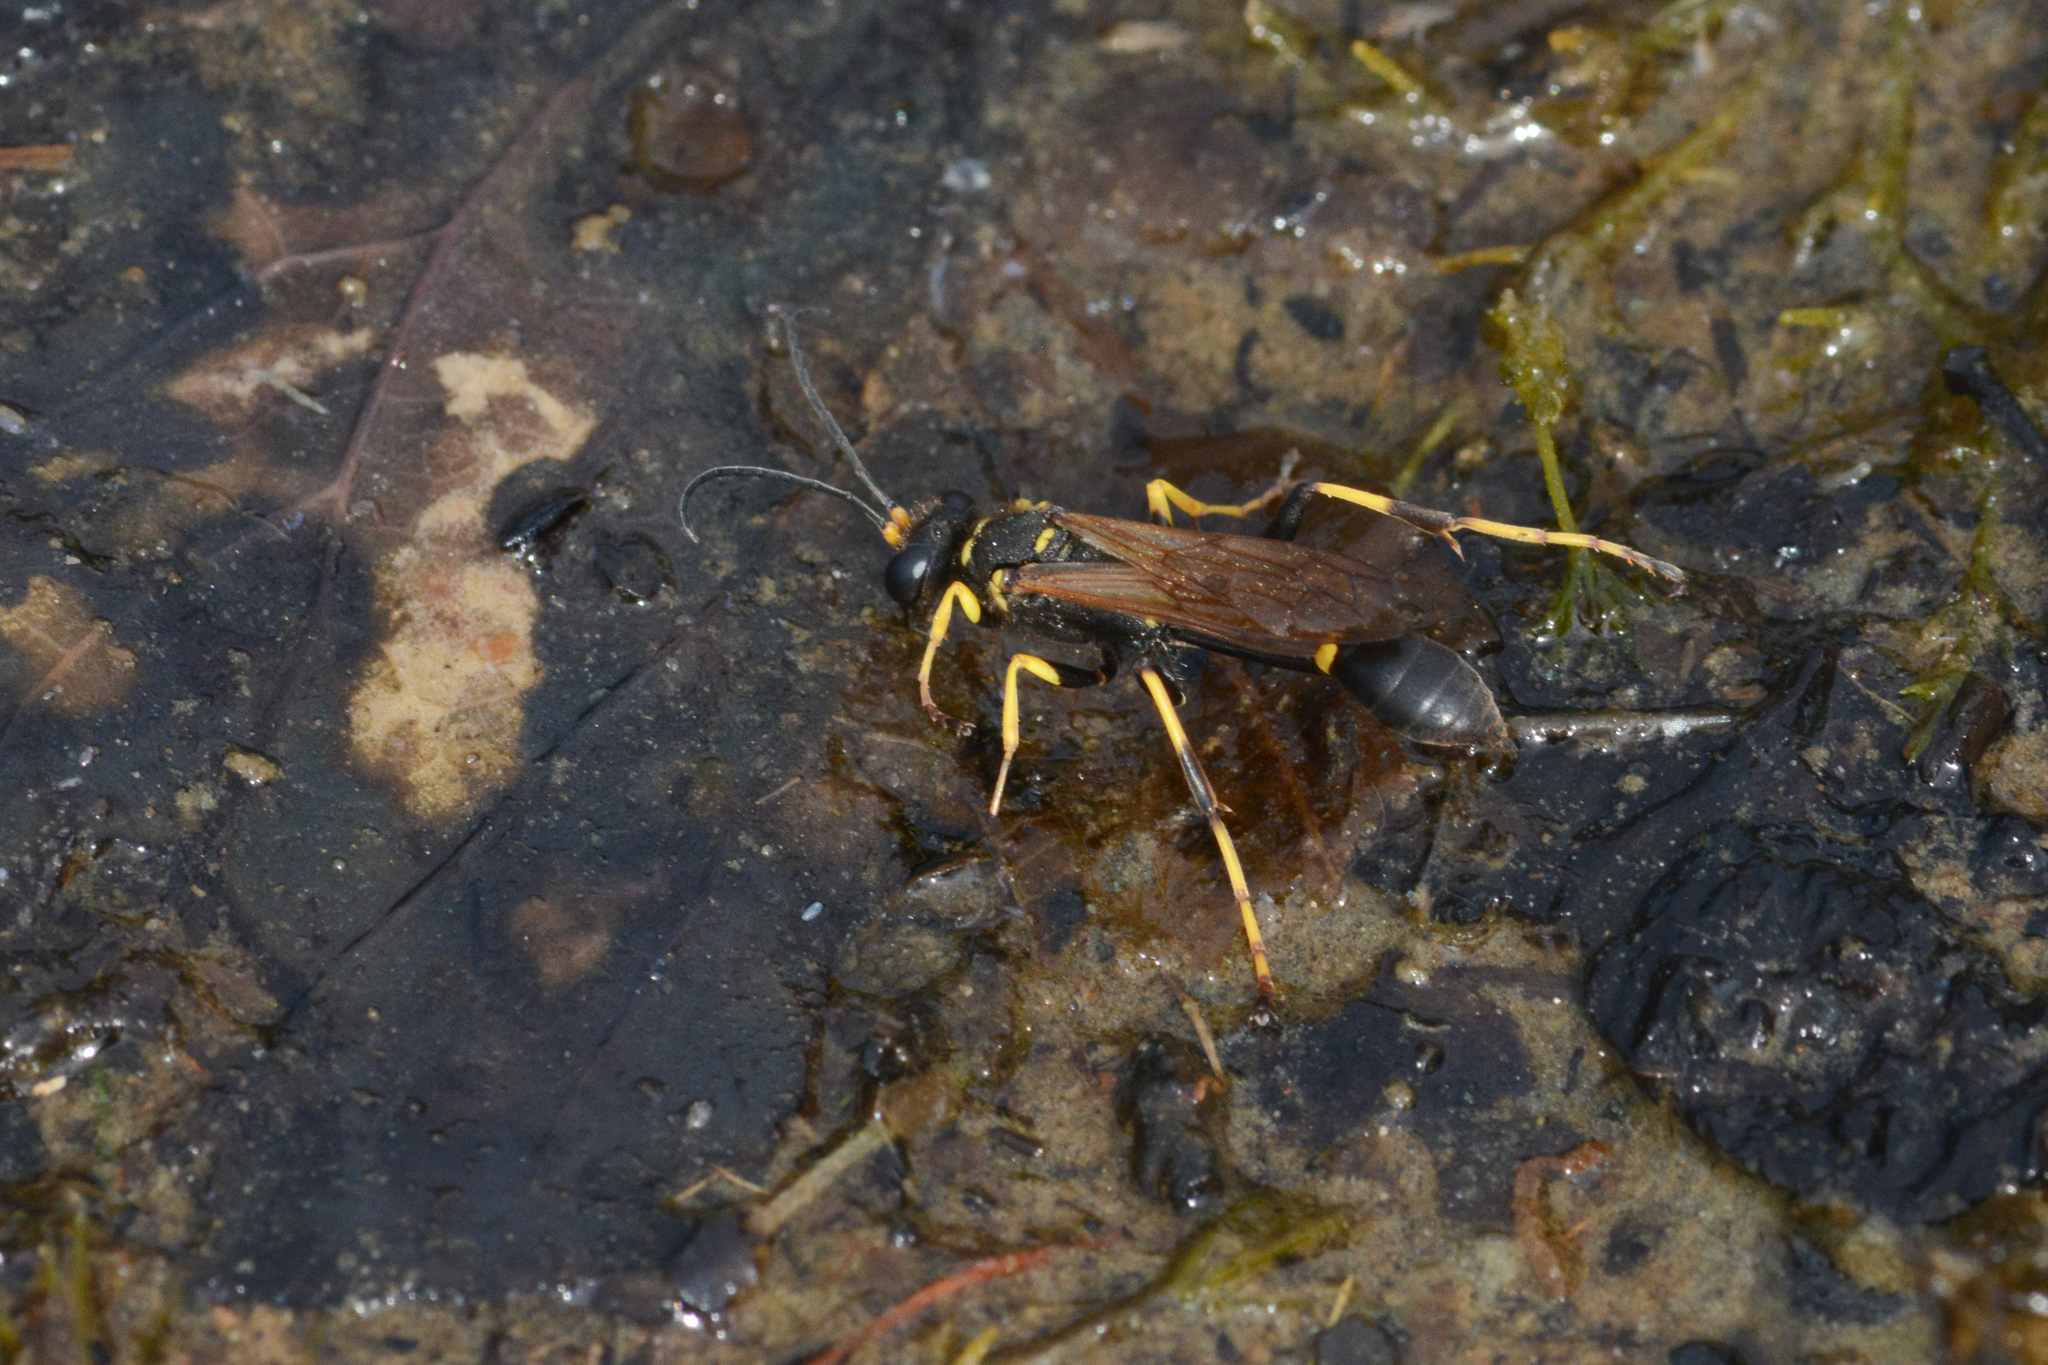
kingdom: Animalia
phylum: Arthropoda
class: Insecta
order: Hymenoptera
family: Sphecidae
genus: Sceliphron
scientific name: Sceliphron caementarium
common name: Mud dauber
